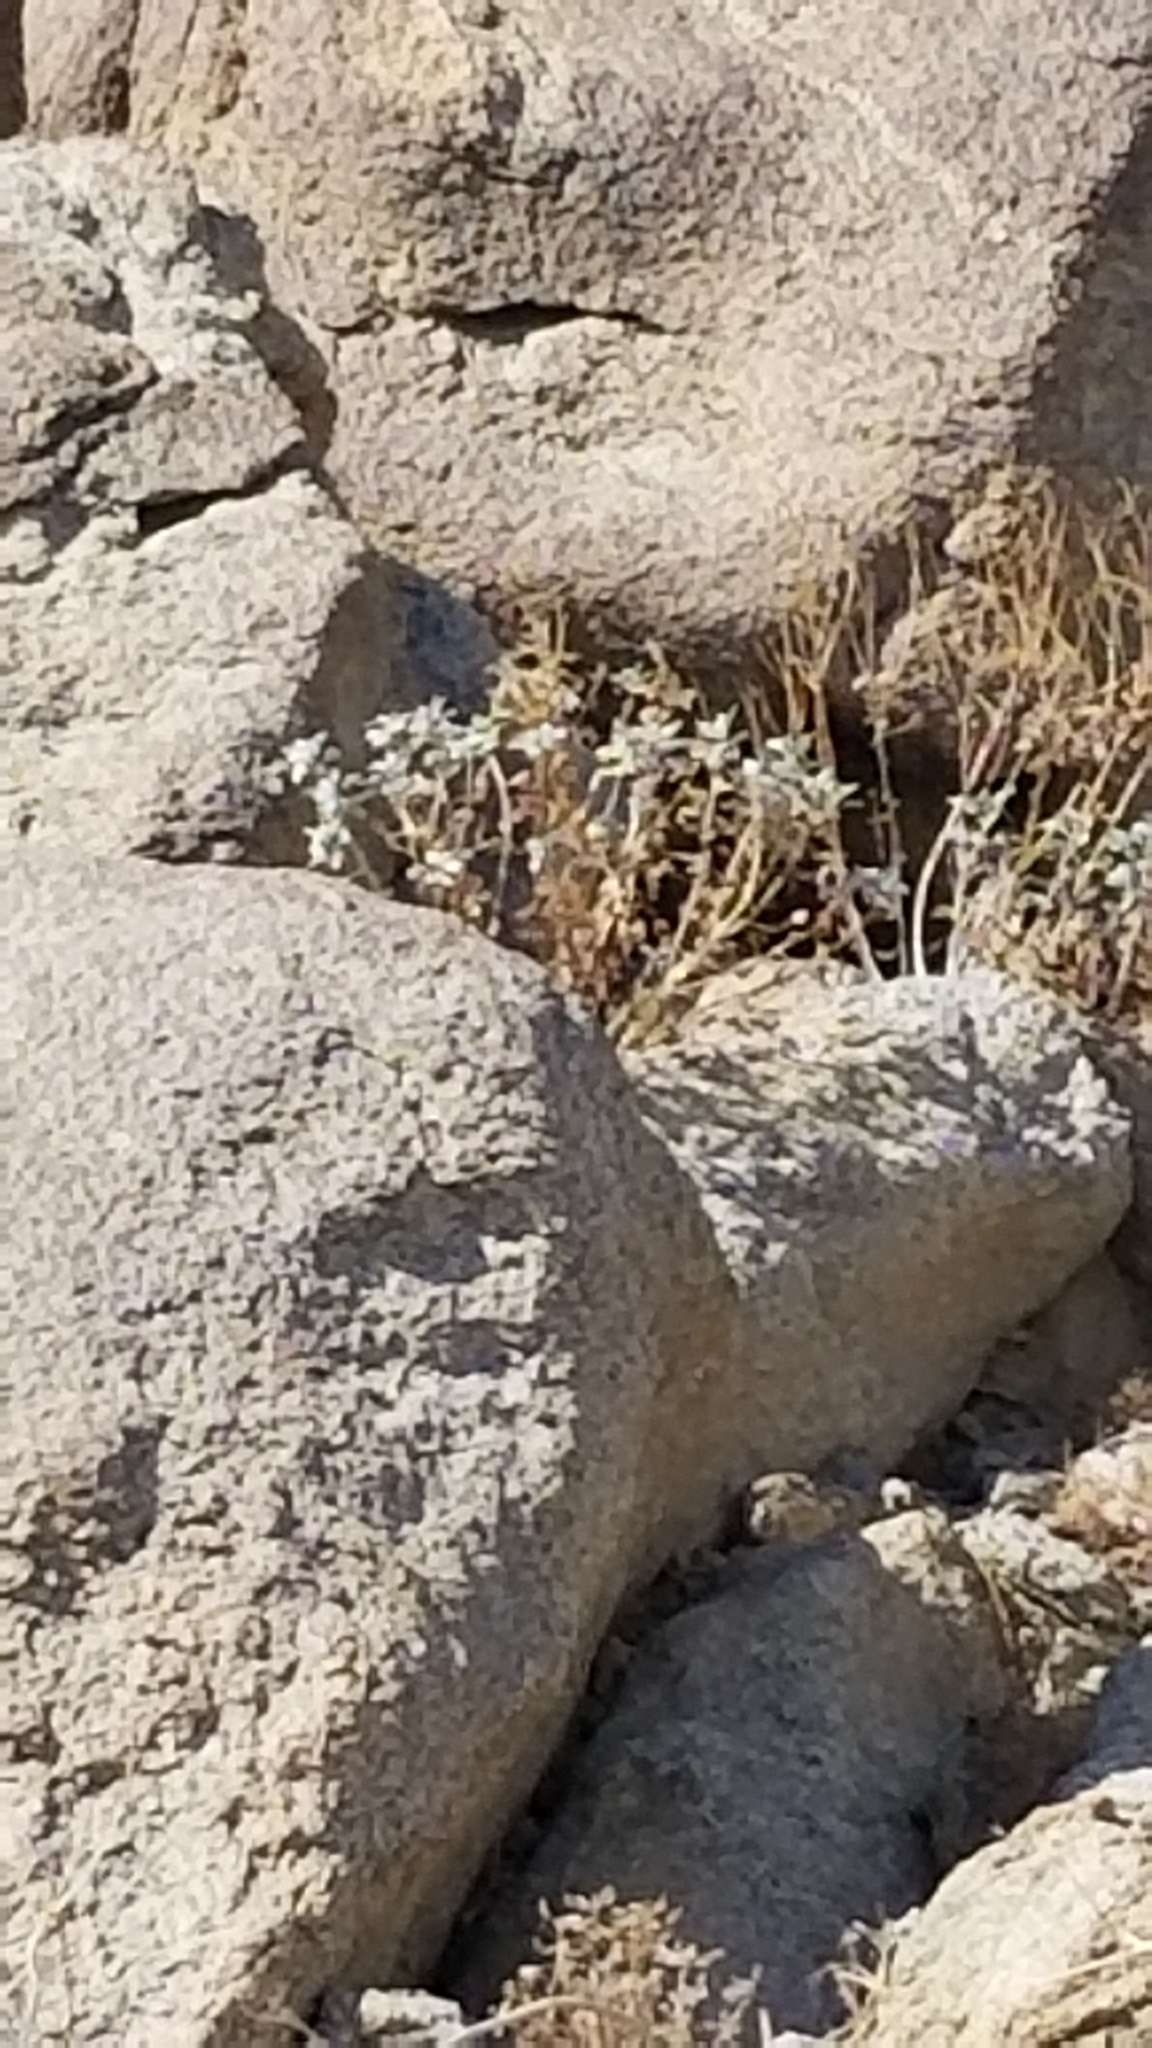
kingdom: Plantae
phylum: Tracheophyta
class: Magnoliopsida
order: Asterales
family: Asteraceae
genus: Encelia
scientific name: Encelia farinosa
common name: Brittlebush
